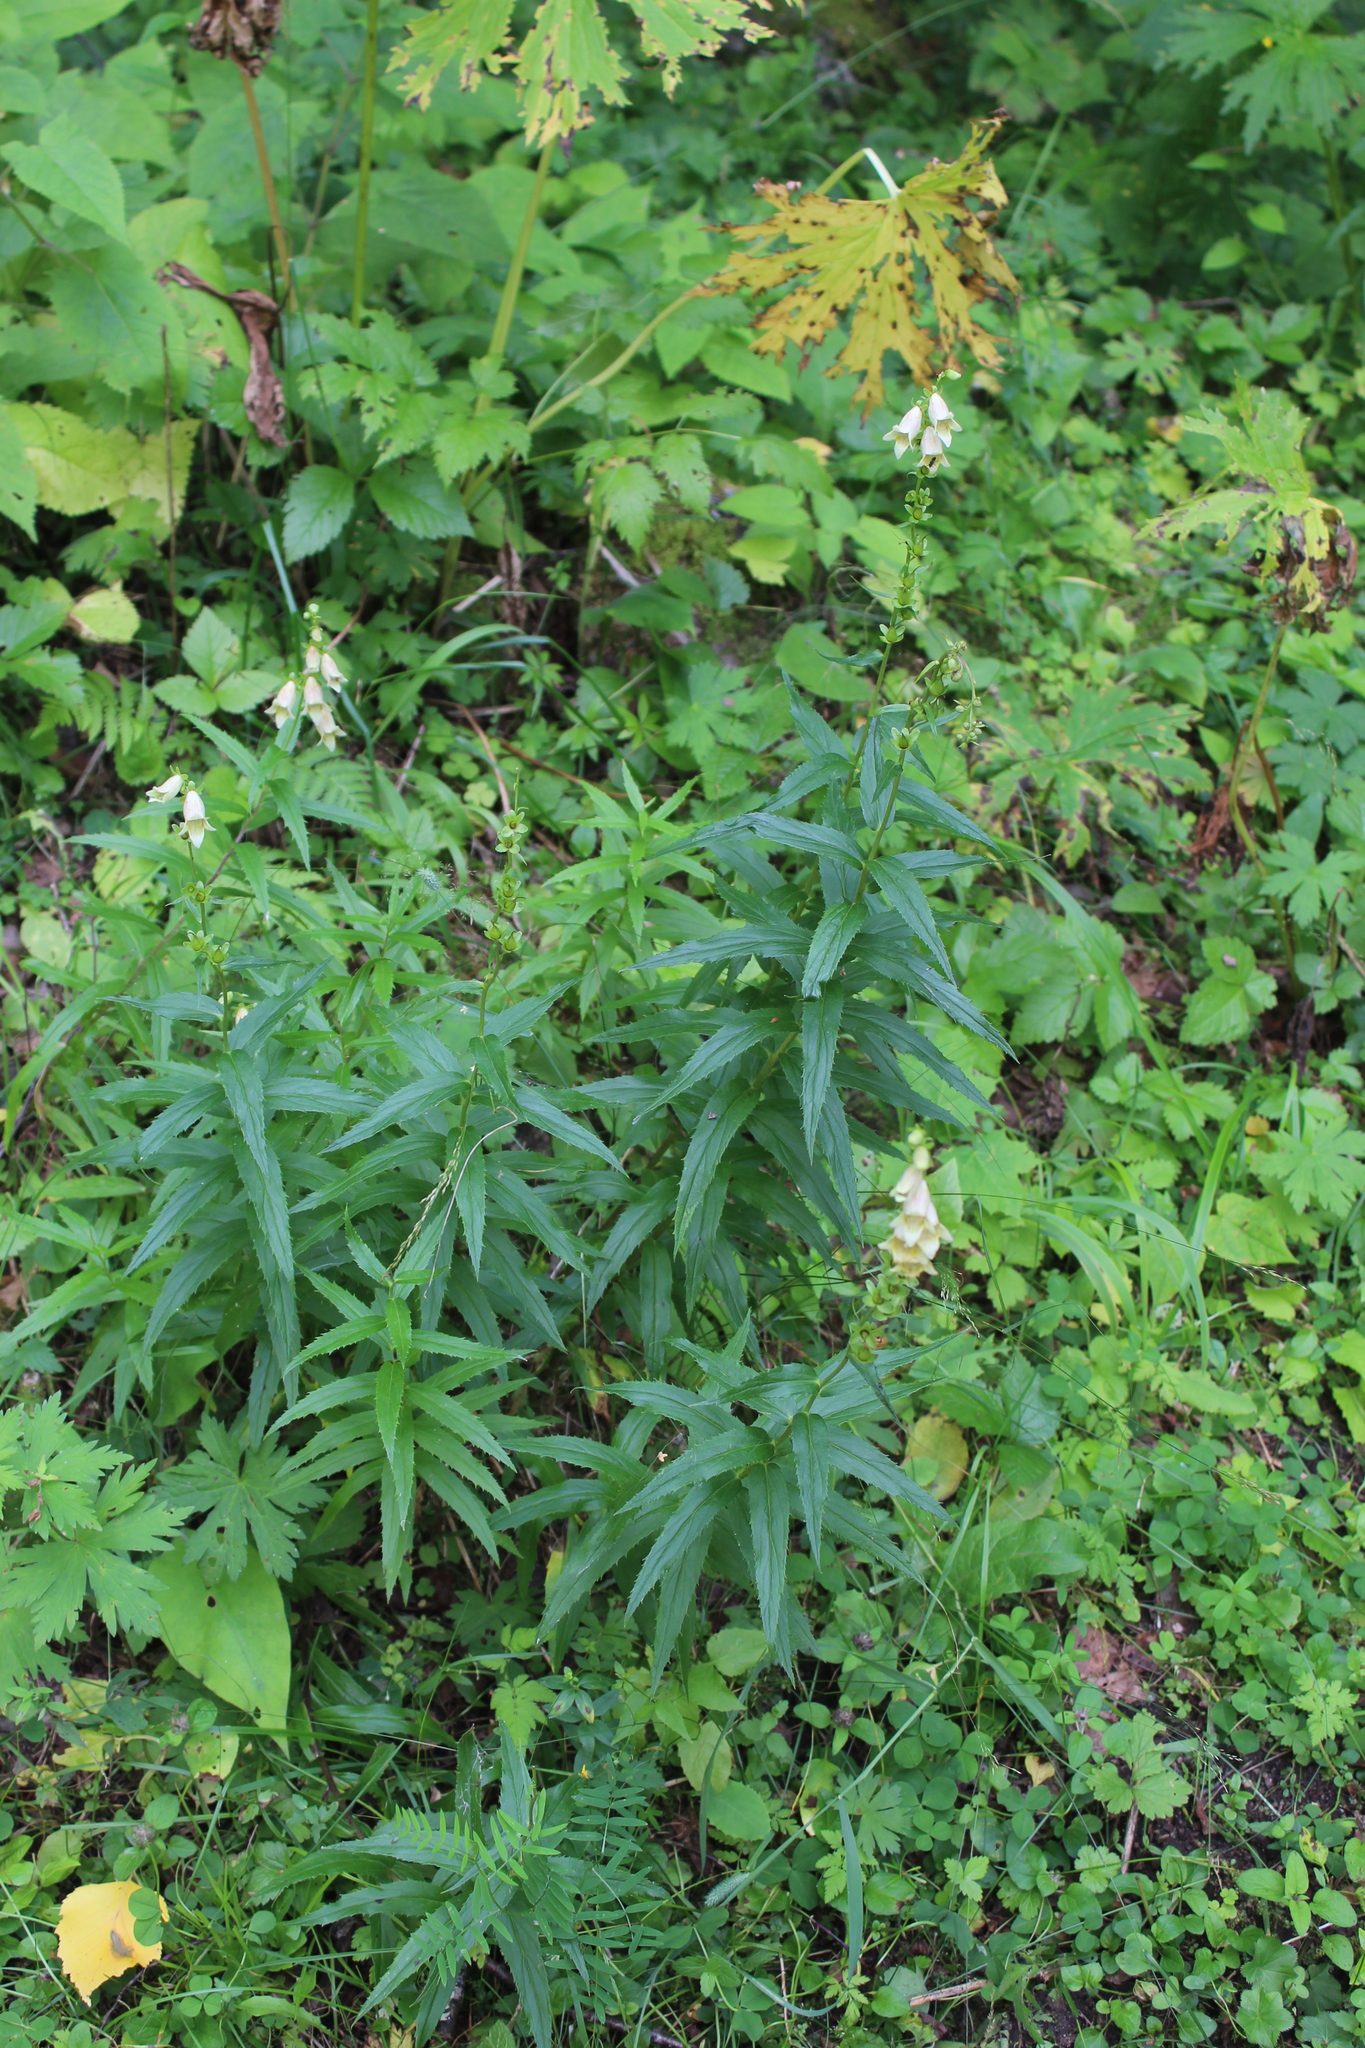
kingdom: Plantae
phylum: Tracheophyta
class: Magnoliopsida
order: Lamiales
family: Plantaginaceae
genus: Digitalis
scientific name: Digitalis ciliata
